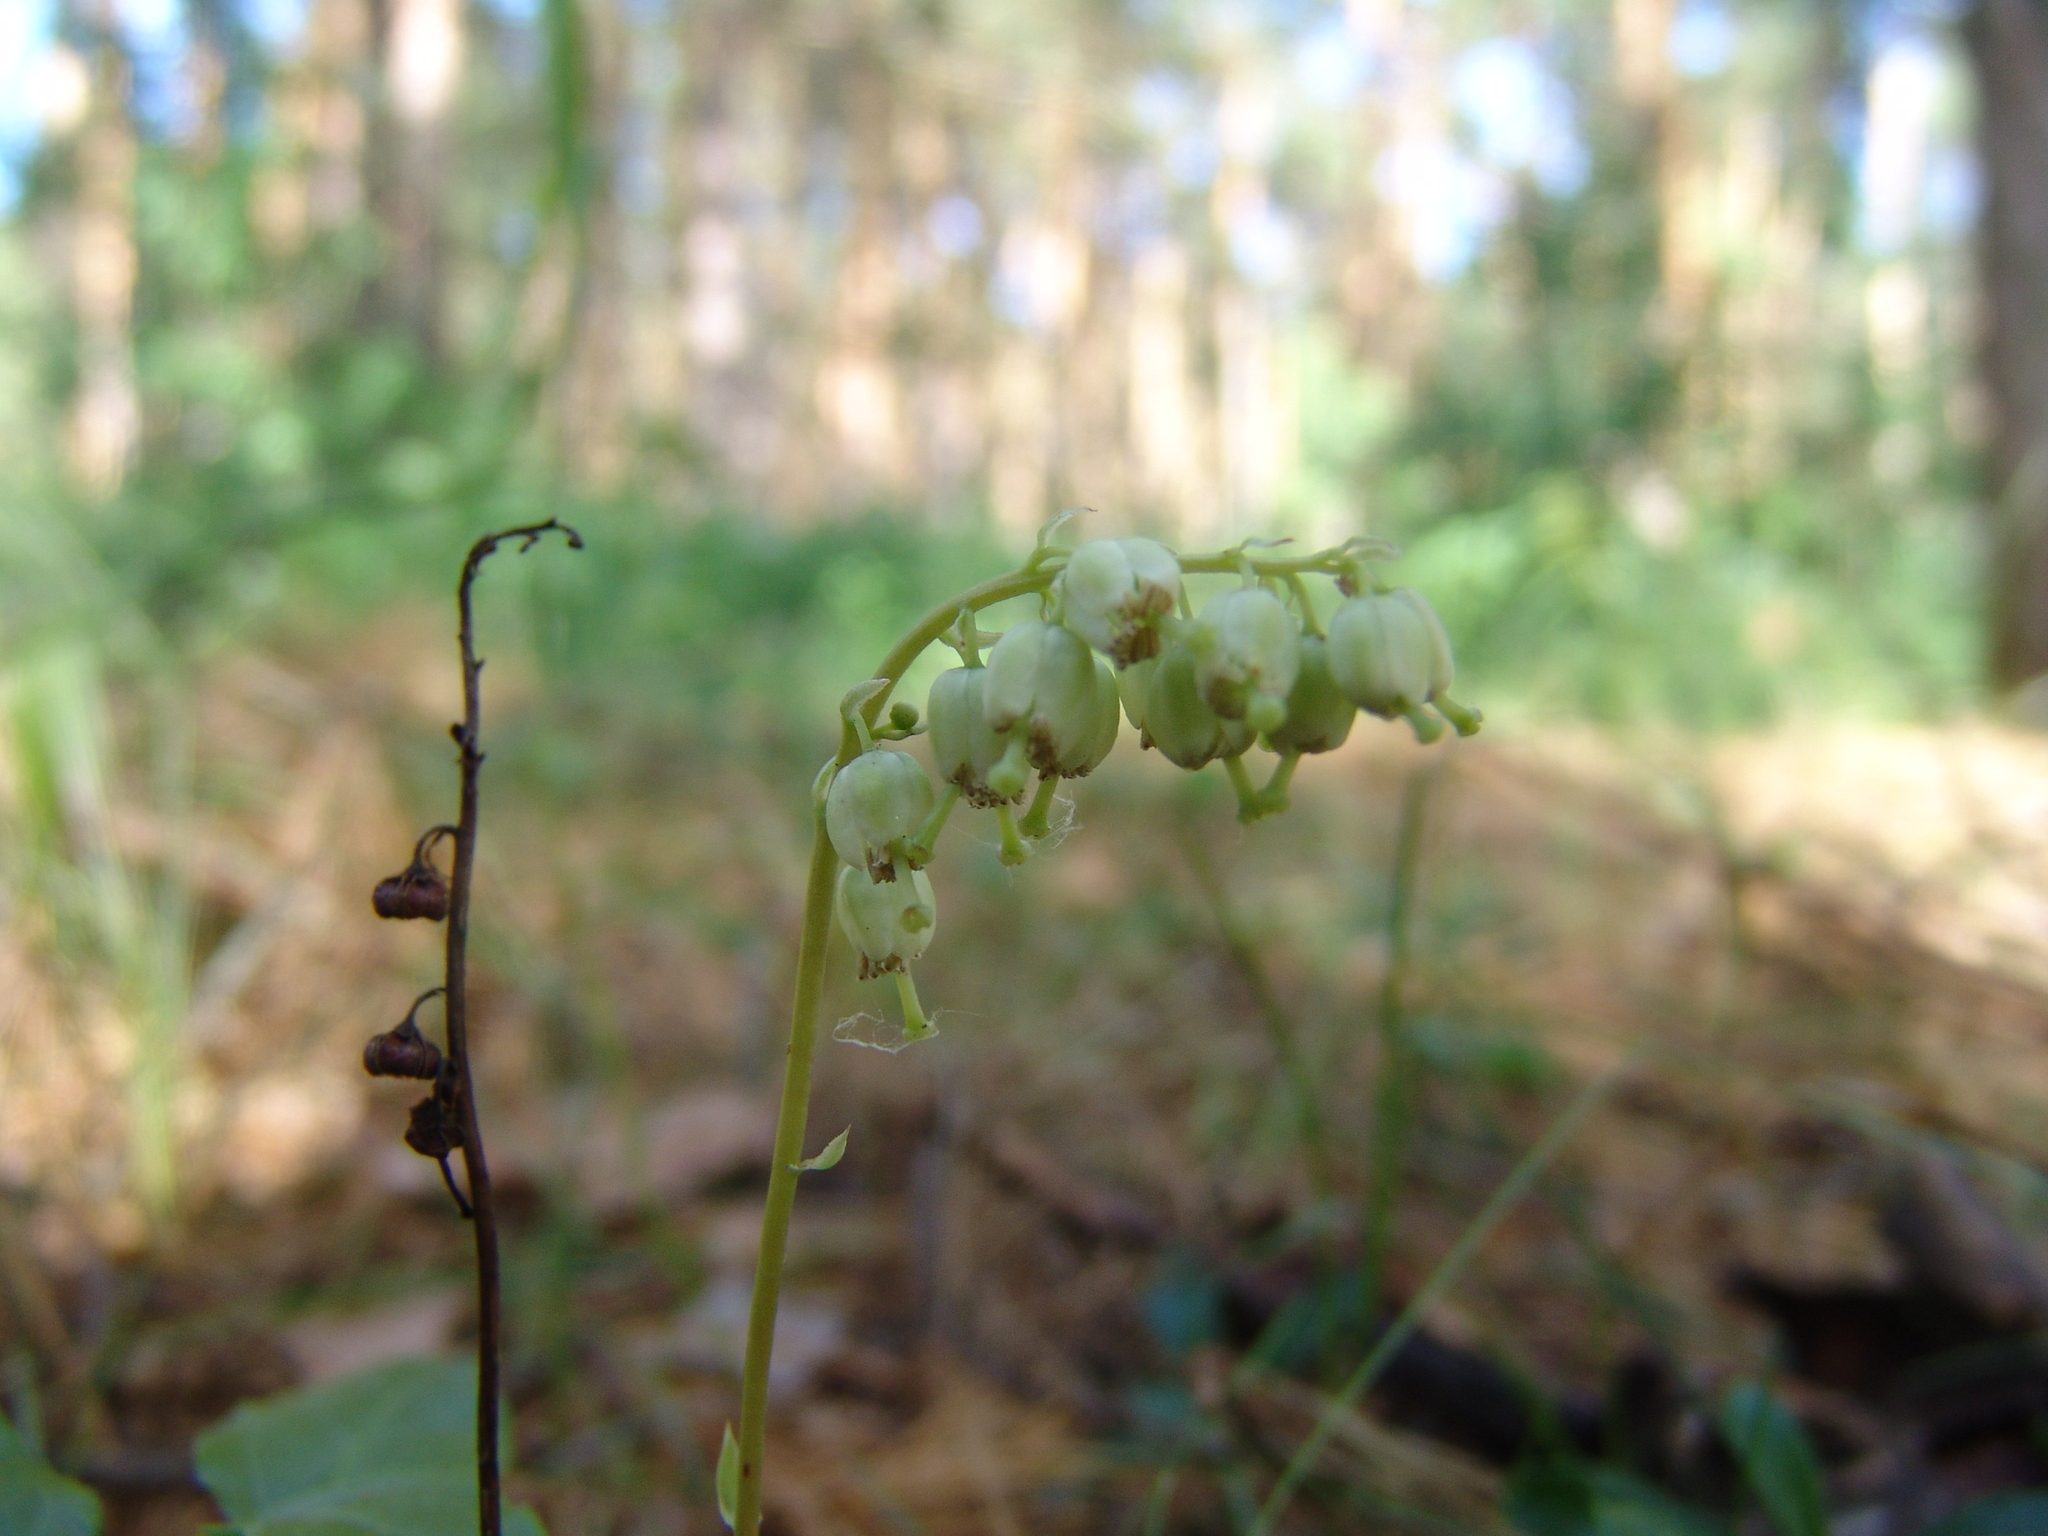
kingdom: Plantae
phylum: Tracheophyta
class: Magnoliopsida
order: Ericales
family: Ericaceae
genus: Orthilia
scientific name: Orthilia secunda
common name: One-sided orthilia
